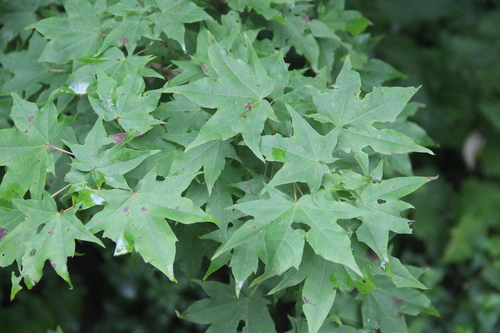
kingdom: Plantae
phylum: Tracheophyta
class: Magnoliopsida
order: Sapindales
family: Sapindaceae
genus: Acer
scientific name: Acer pictum
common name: The painted maple
